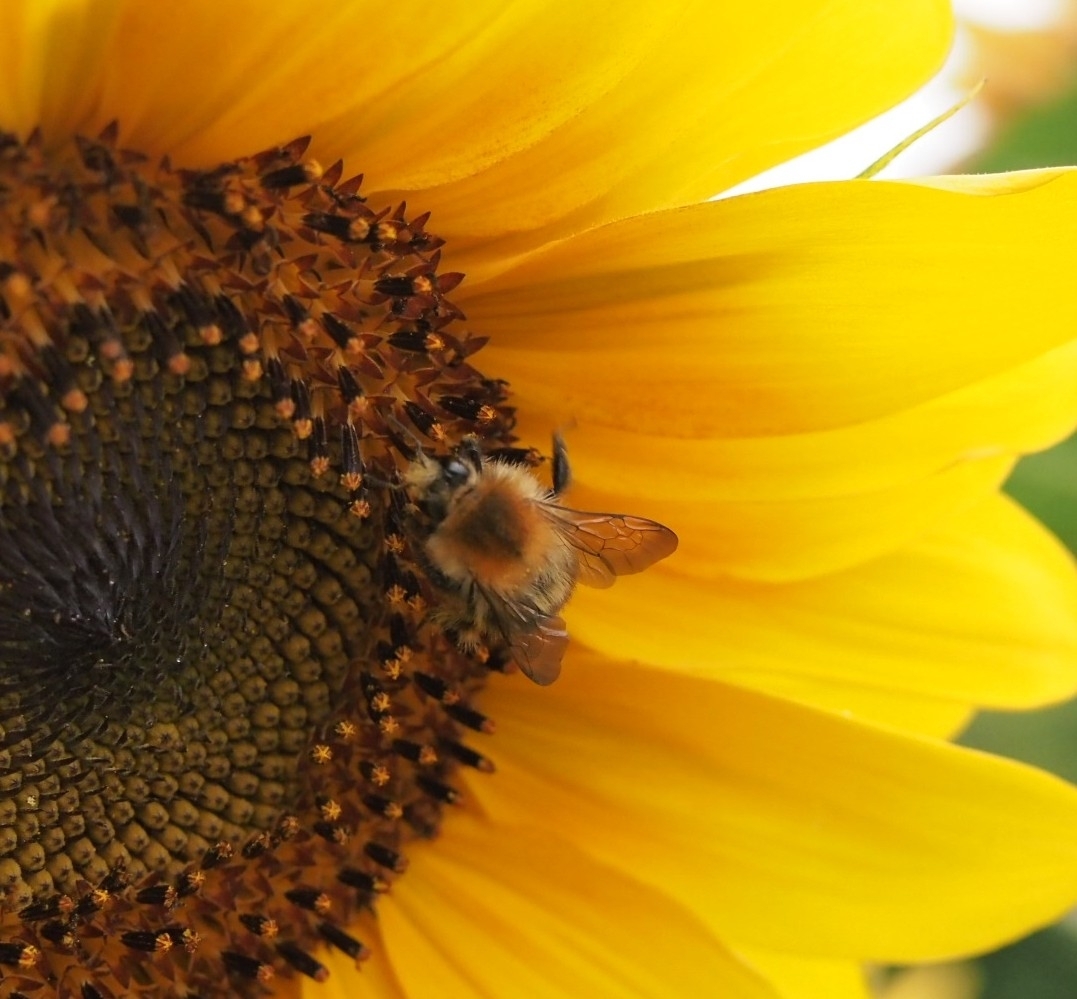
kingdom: Animalia
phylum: Arthropoda
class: Insecta
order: Hymenoptera
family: Apidae
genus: Bombus
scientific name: Bombus pascuorum
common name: Common carder bee
